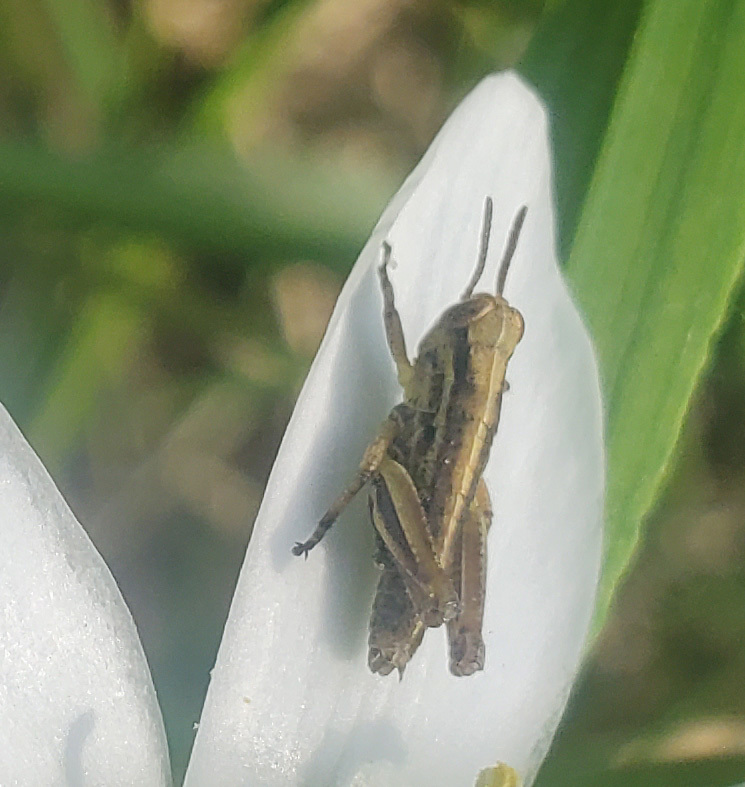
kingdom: Animalia
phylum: Arthropoda
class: Insecta
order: Orthoptera
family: Acrididae
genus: Melanoplus
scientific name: Melanoplus bivittatus
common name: Two-striped grasshopper
